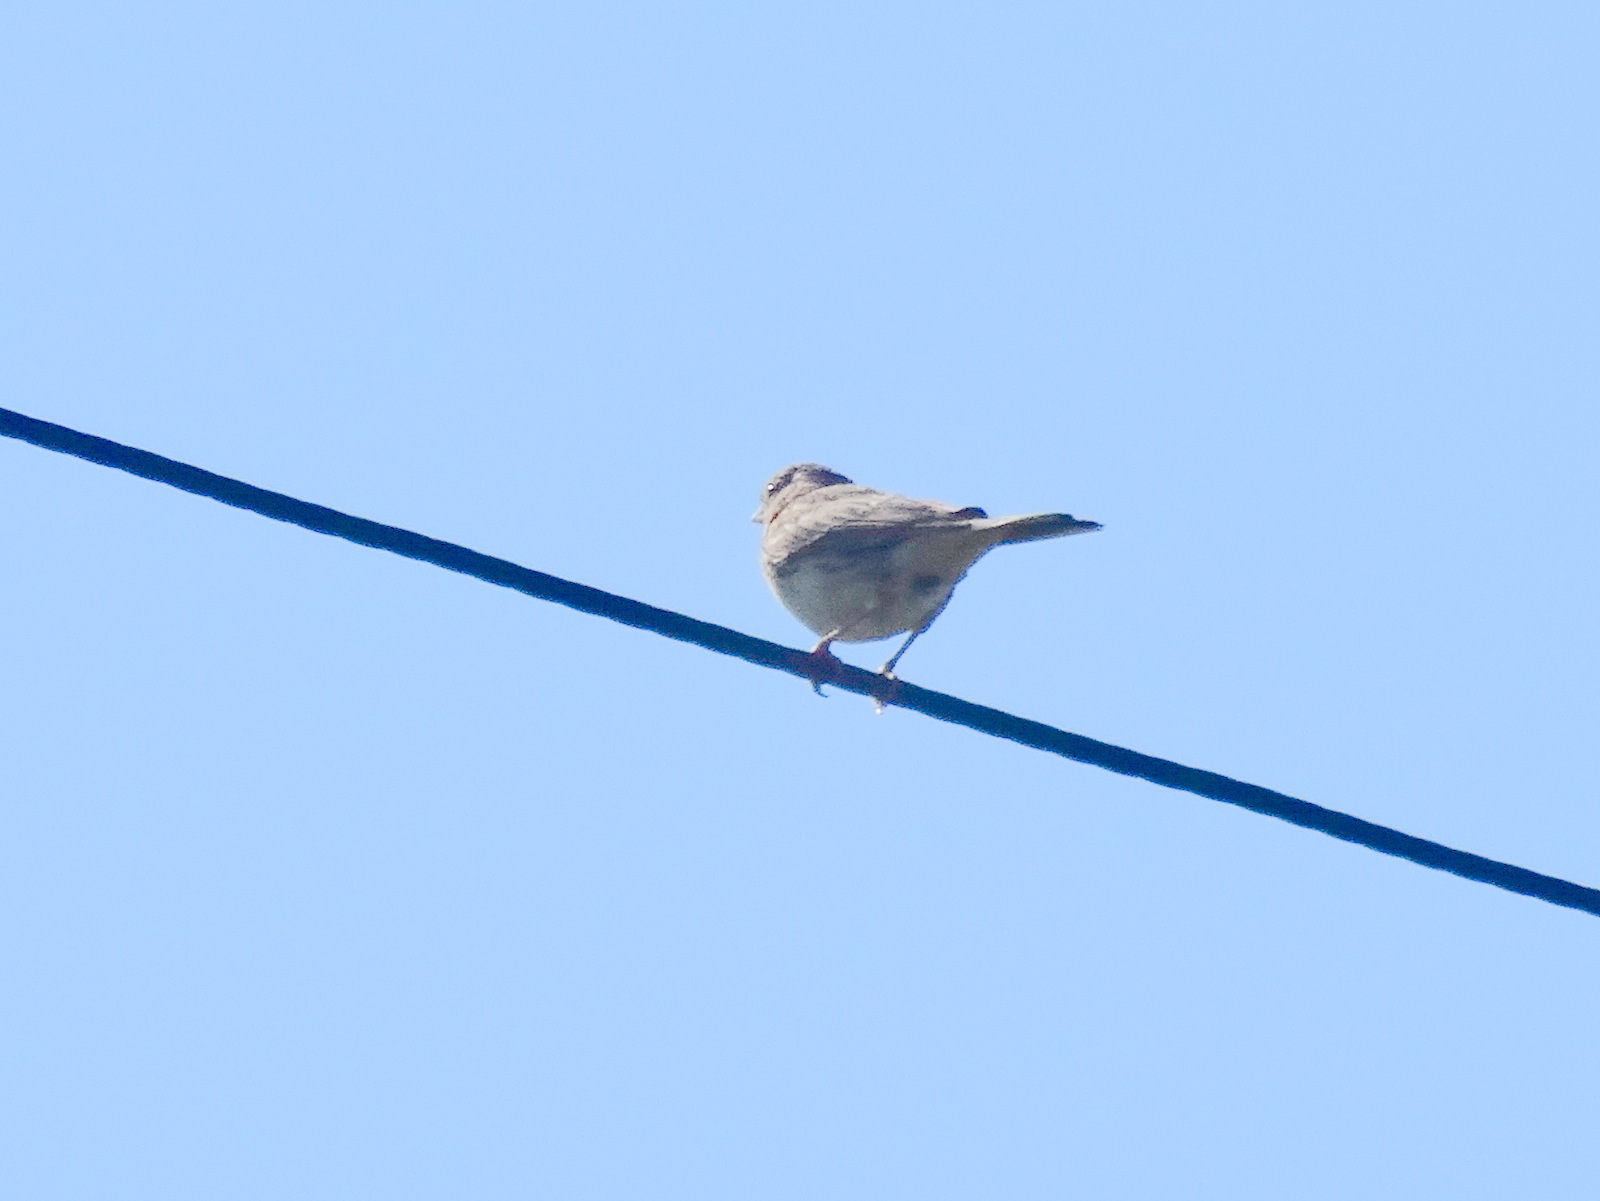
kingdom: Animalia
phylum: Chordata
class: Aves
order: Passeriformes
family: Passerellidae
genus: Pooecetes
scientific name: Pooecetes gramineus
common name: Vesper sparrow
